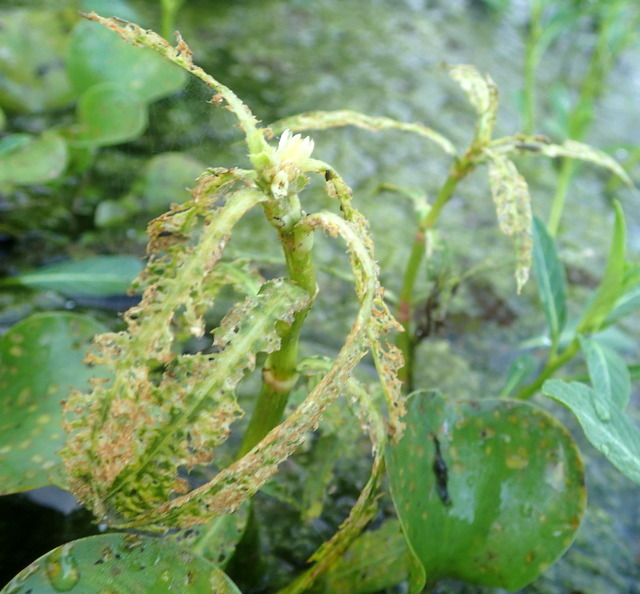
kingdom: Plantae
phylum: Tracheophyta
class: Magnoliopsida
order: Caryophyllales
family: Amaranthaceae
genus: Alternanthera
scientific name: Alternanthera philoxeroides
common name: Alligatorweed
